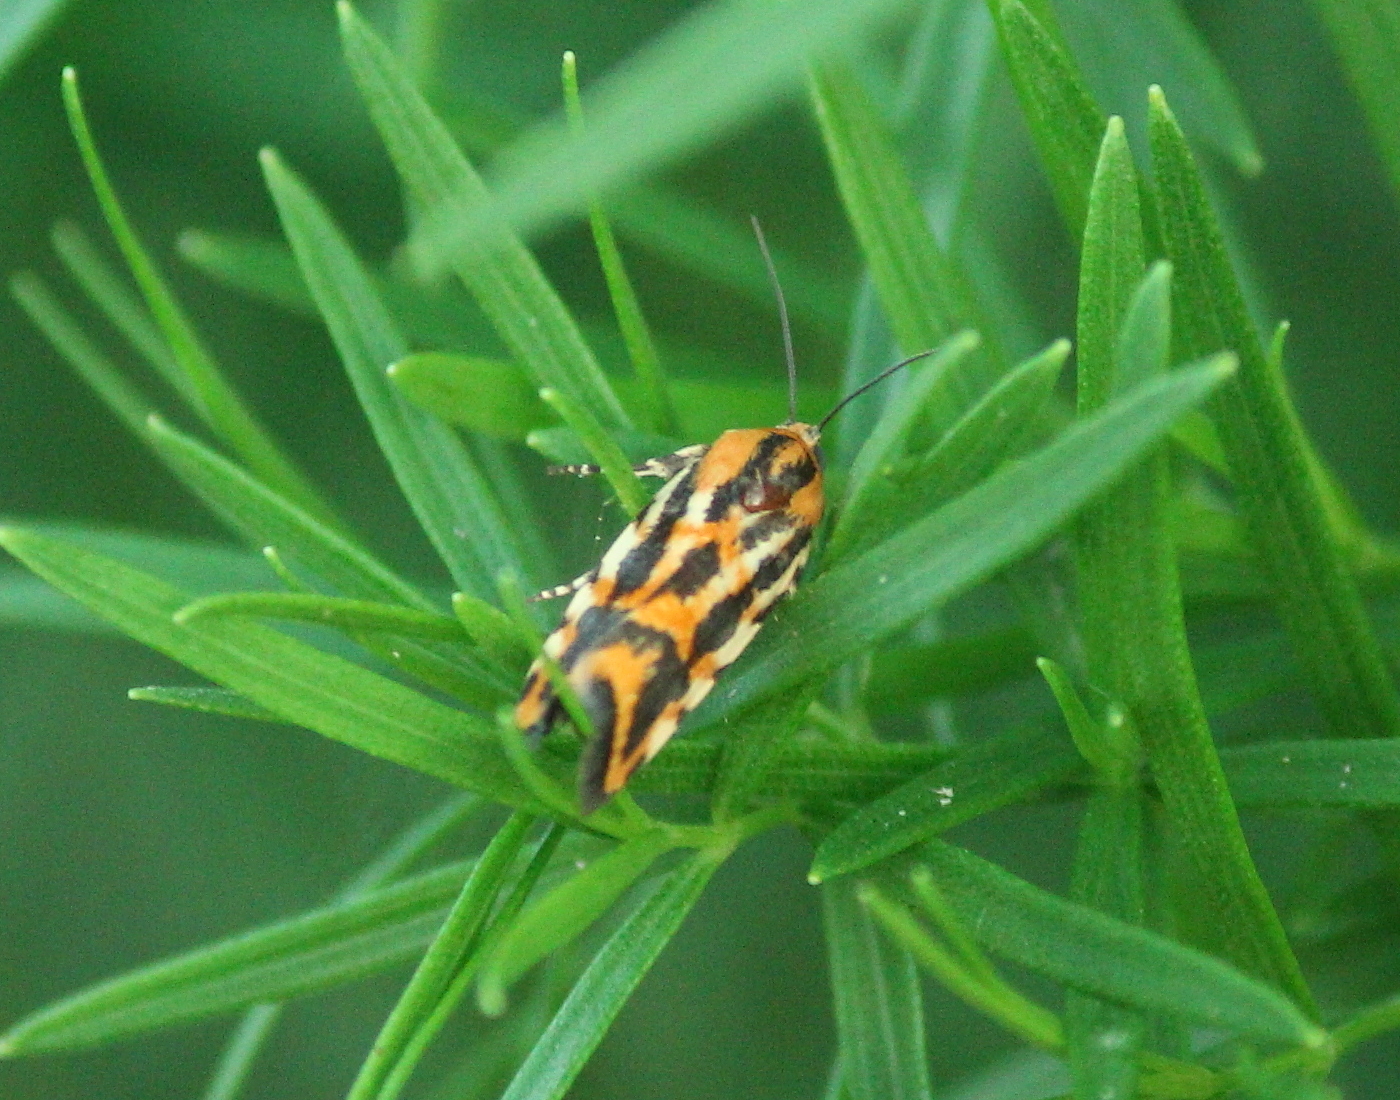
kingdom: Animalia
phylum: Arthropoda
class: Insecta
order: Lepidoptera
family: Noctuidae
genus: Acontia
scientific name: Acontia leo
